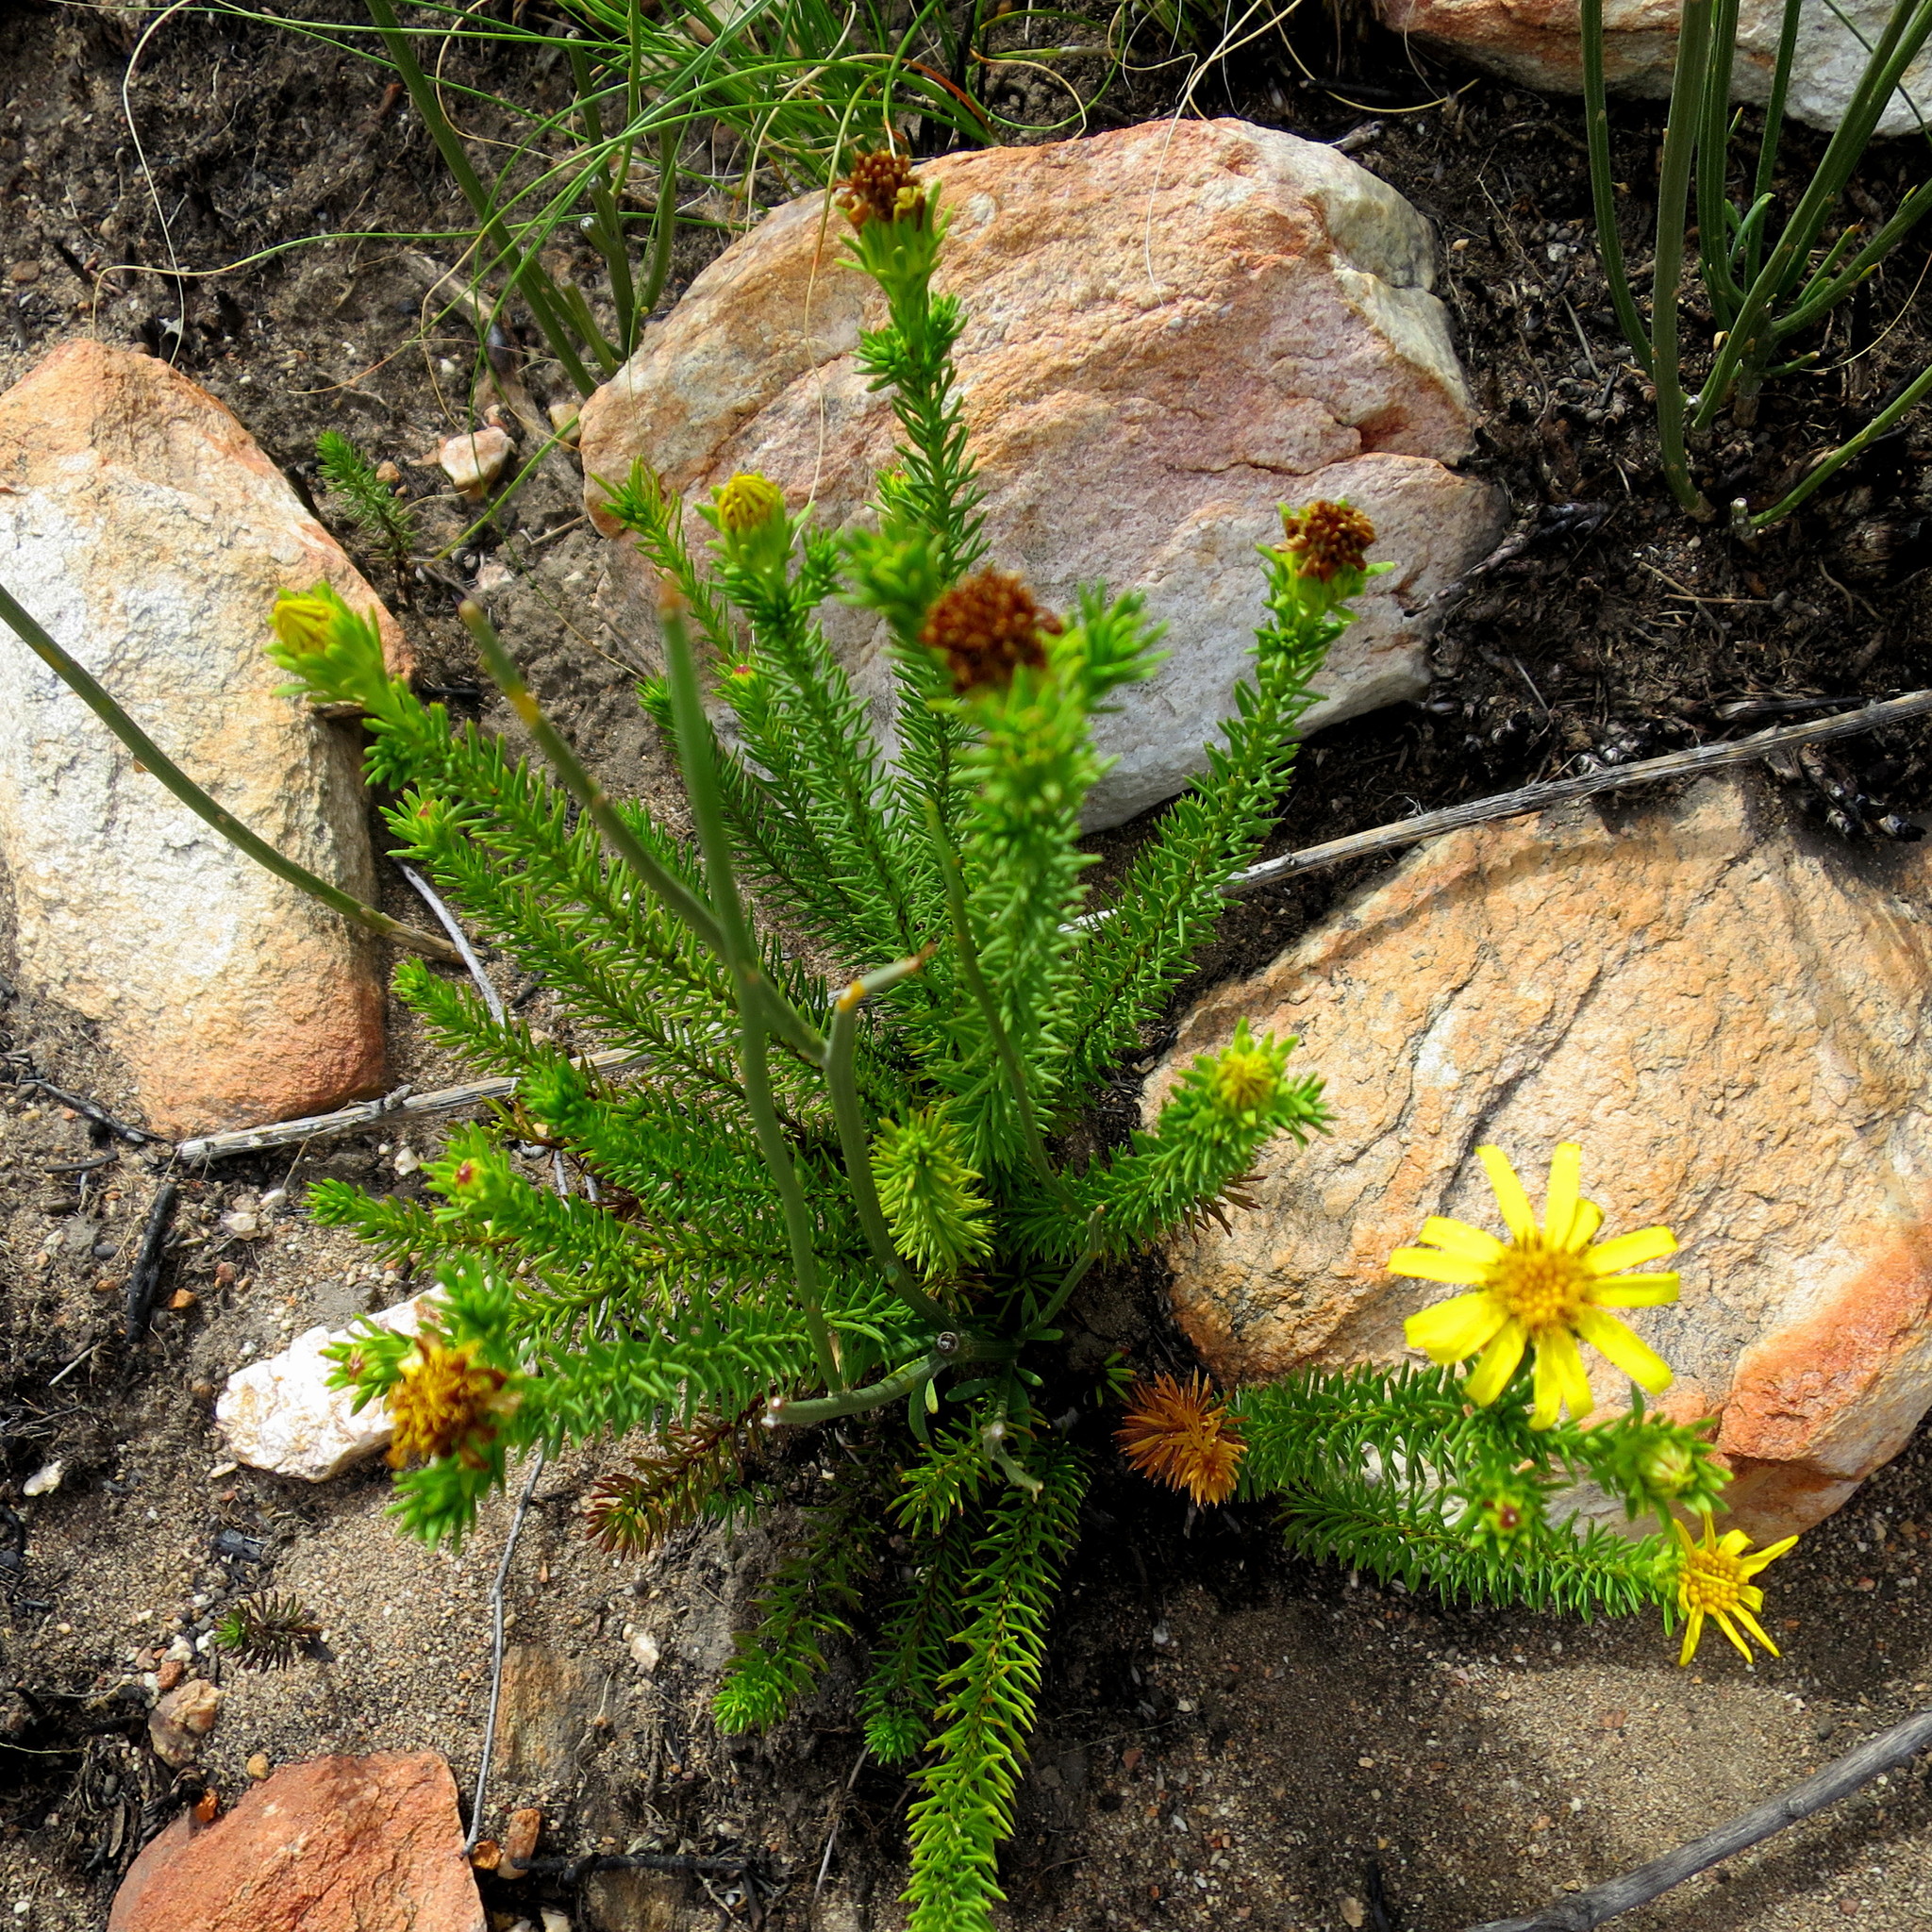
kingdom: Plantae
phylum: Tracheophyta
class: Magnoliopsida
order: Asterales
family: Asteraceae
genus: Senecio
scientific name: Senecio pinifolius
